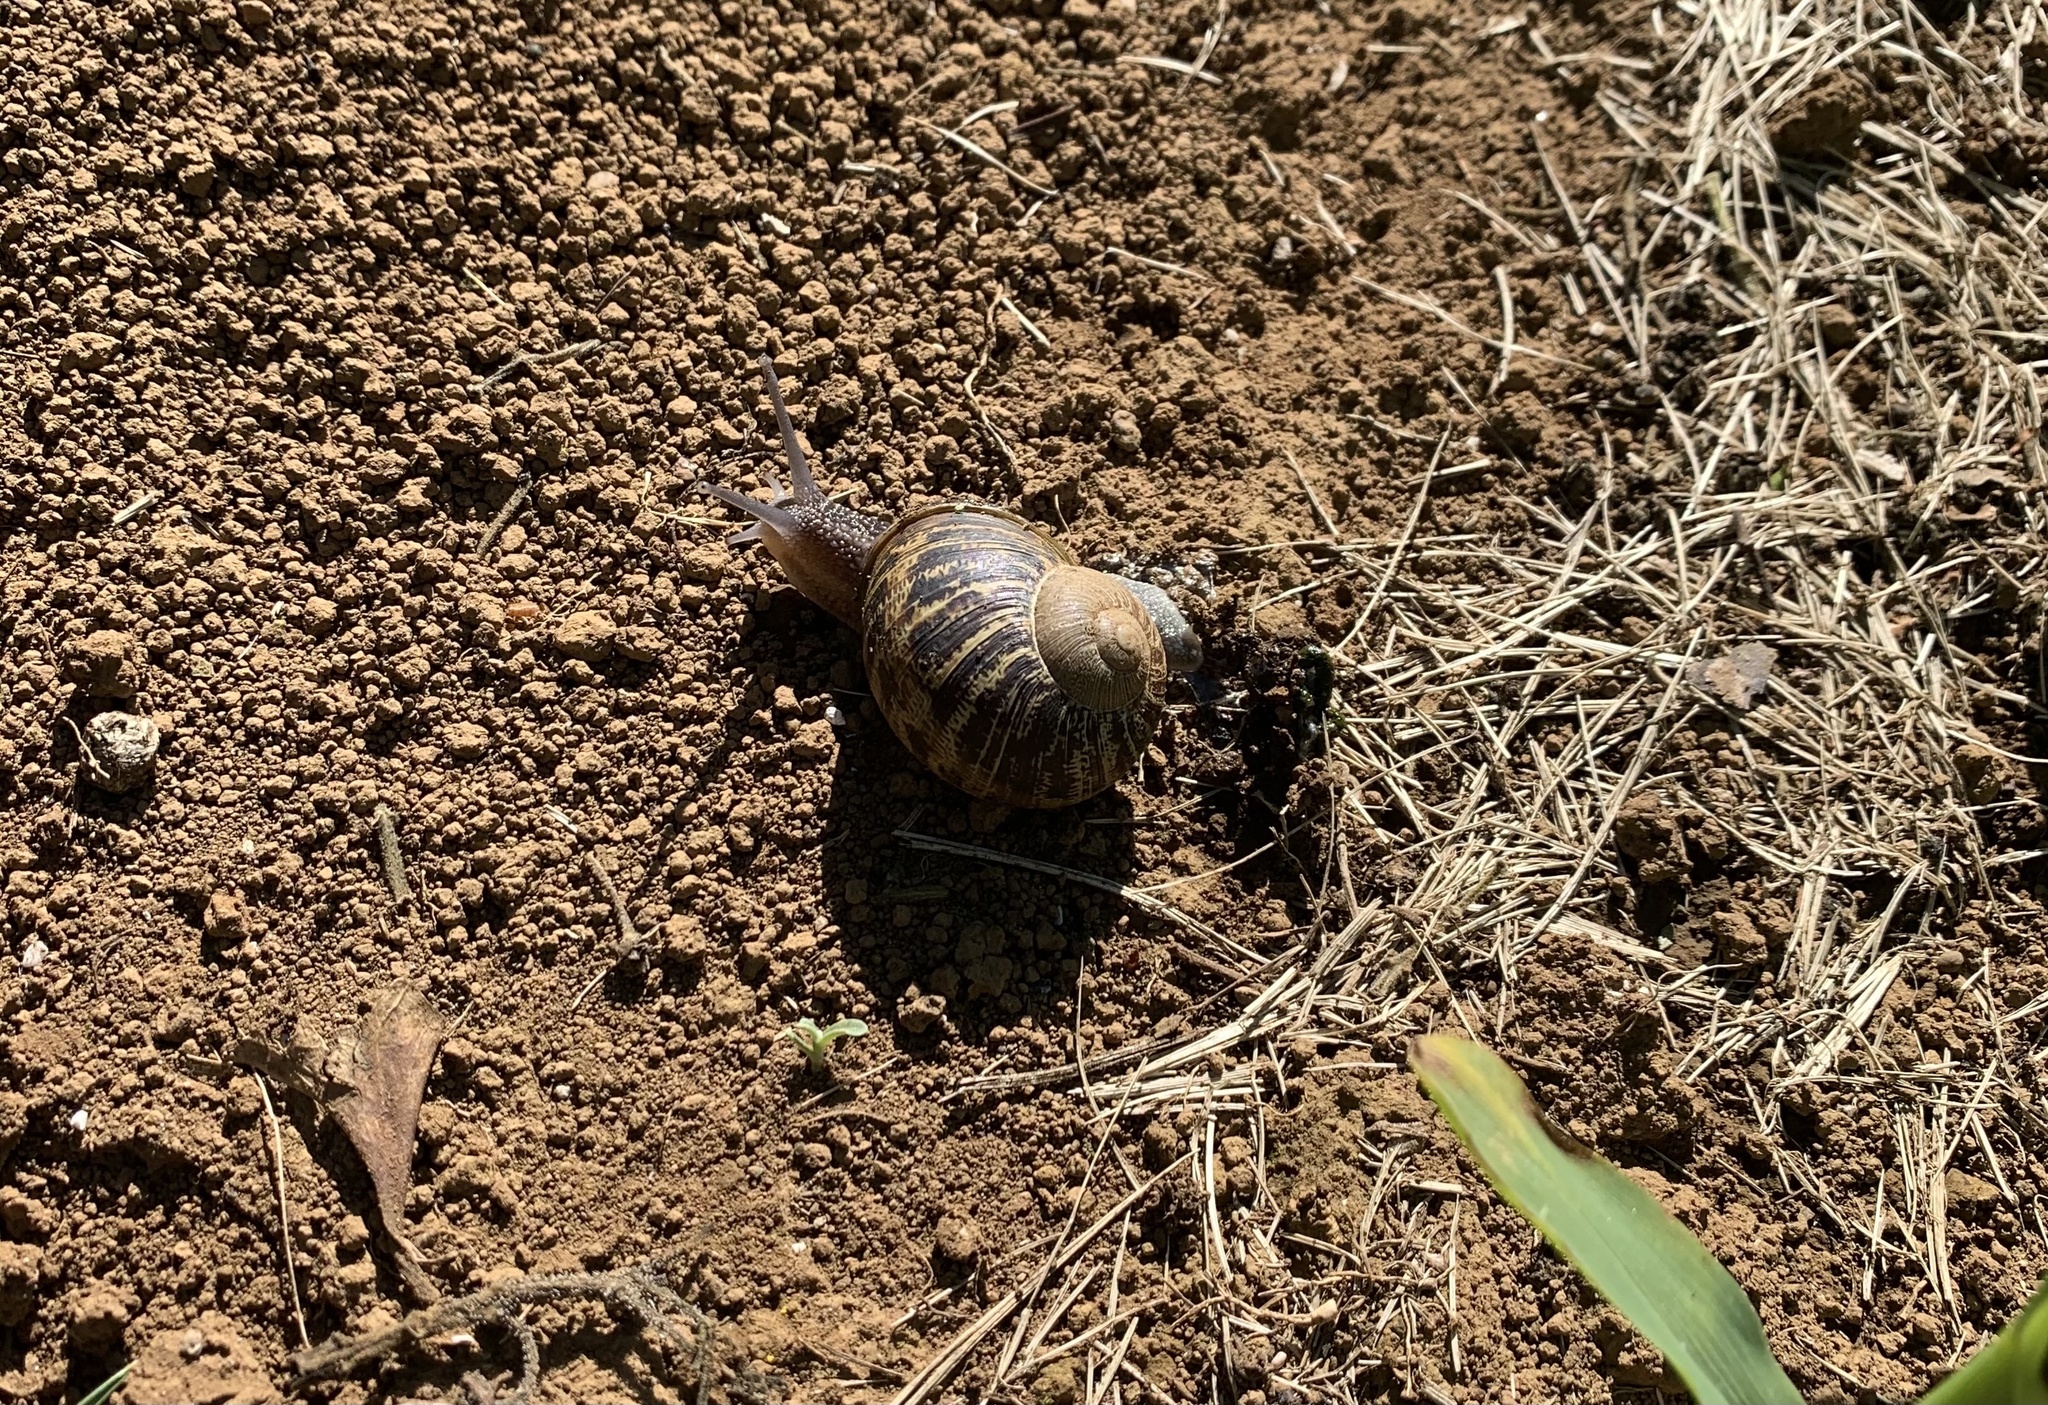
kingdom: Animalia
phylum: Mollusca
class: Gastropoda
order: Stylommatophora
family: Helicidae
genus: Cornu
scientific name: Cornu aspersum
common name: Brown garden snail
